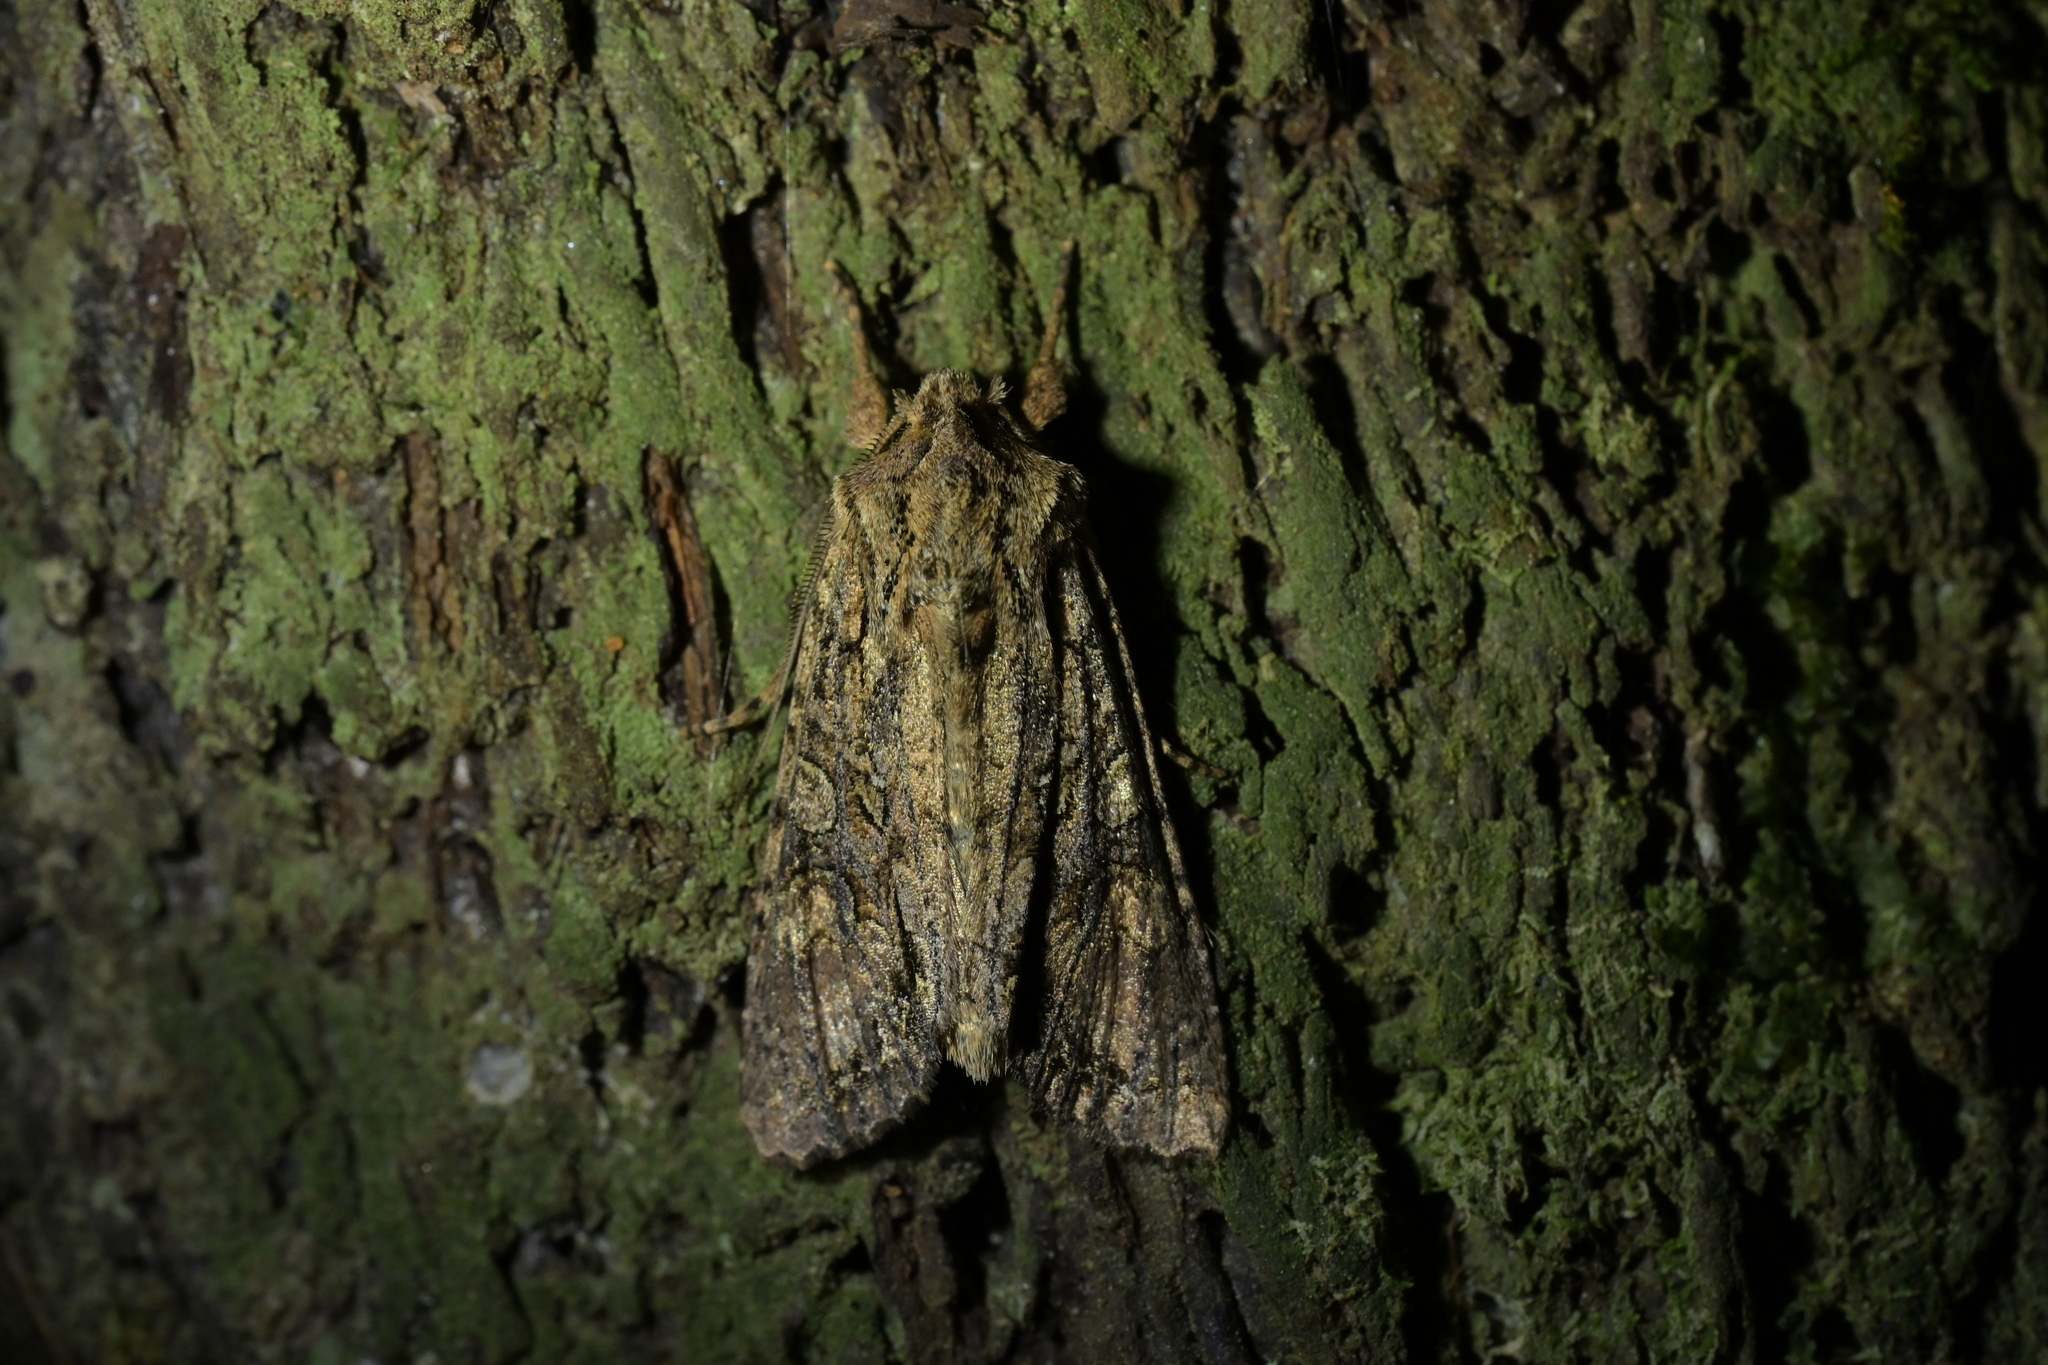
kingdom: Animalia
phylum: Arthropoda
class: Insecta
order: Lepidoptera
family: Noctuidae
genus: Ichneutica
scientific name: Ichneutica mutans
